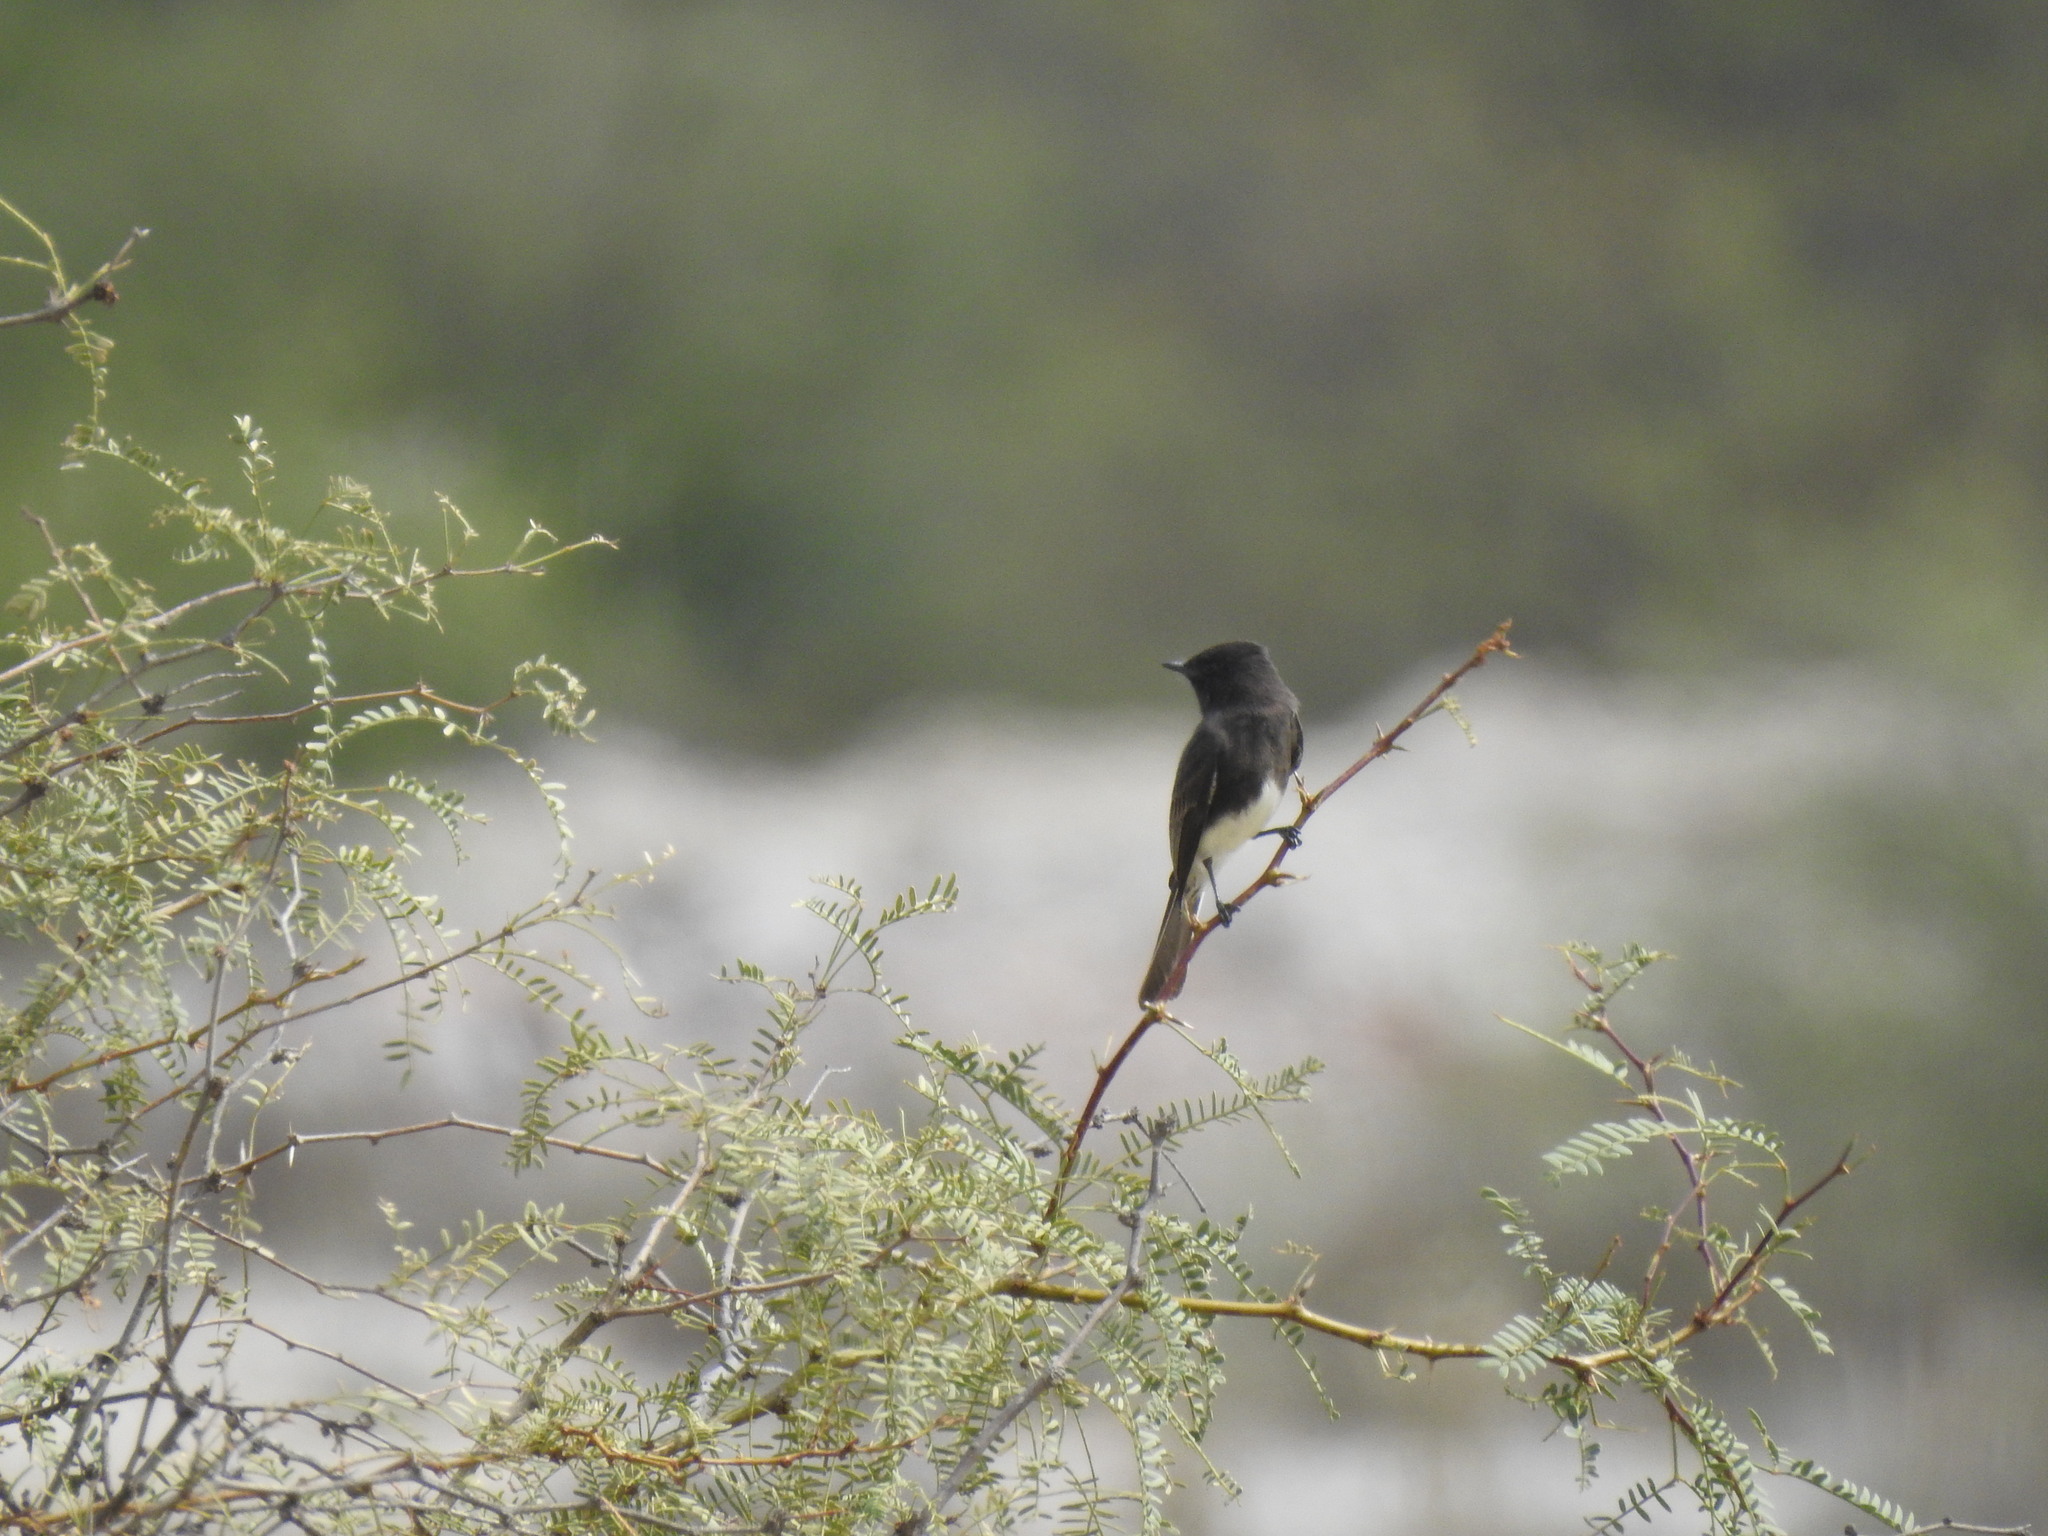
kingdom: Animalia
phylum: Chordata
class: Aves
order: Passeriformes
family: Tyrannidae
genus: Sayornis
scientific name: Sayornis nigricans
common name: Black phoebe
